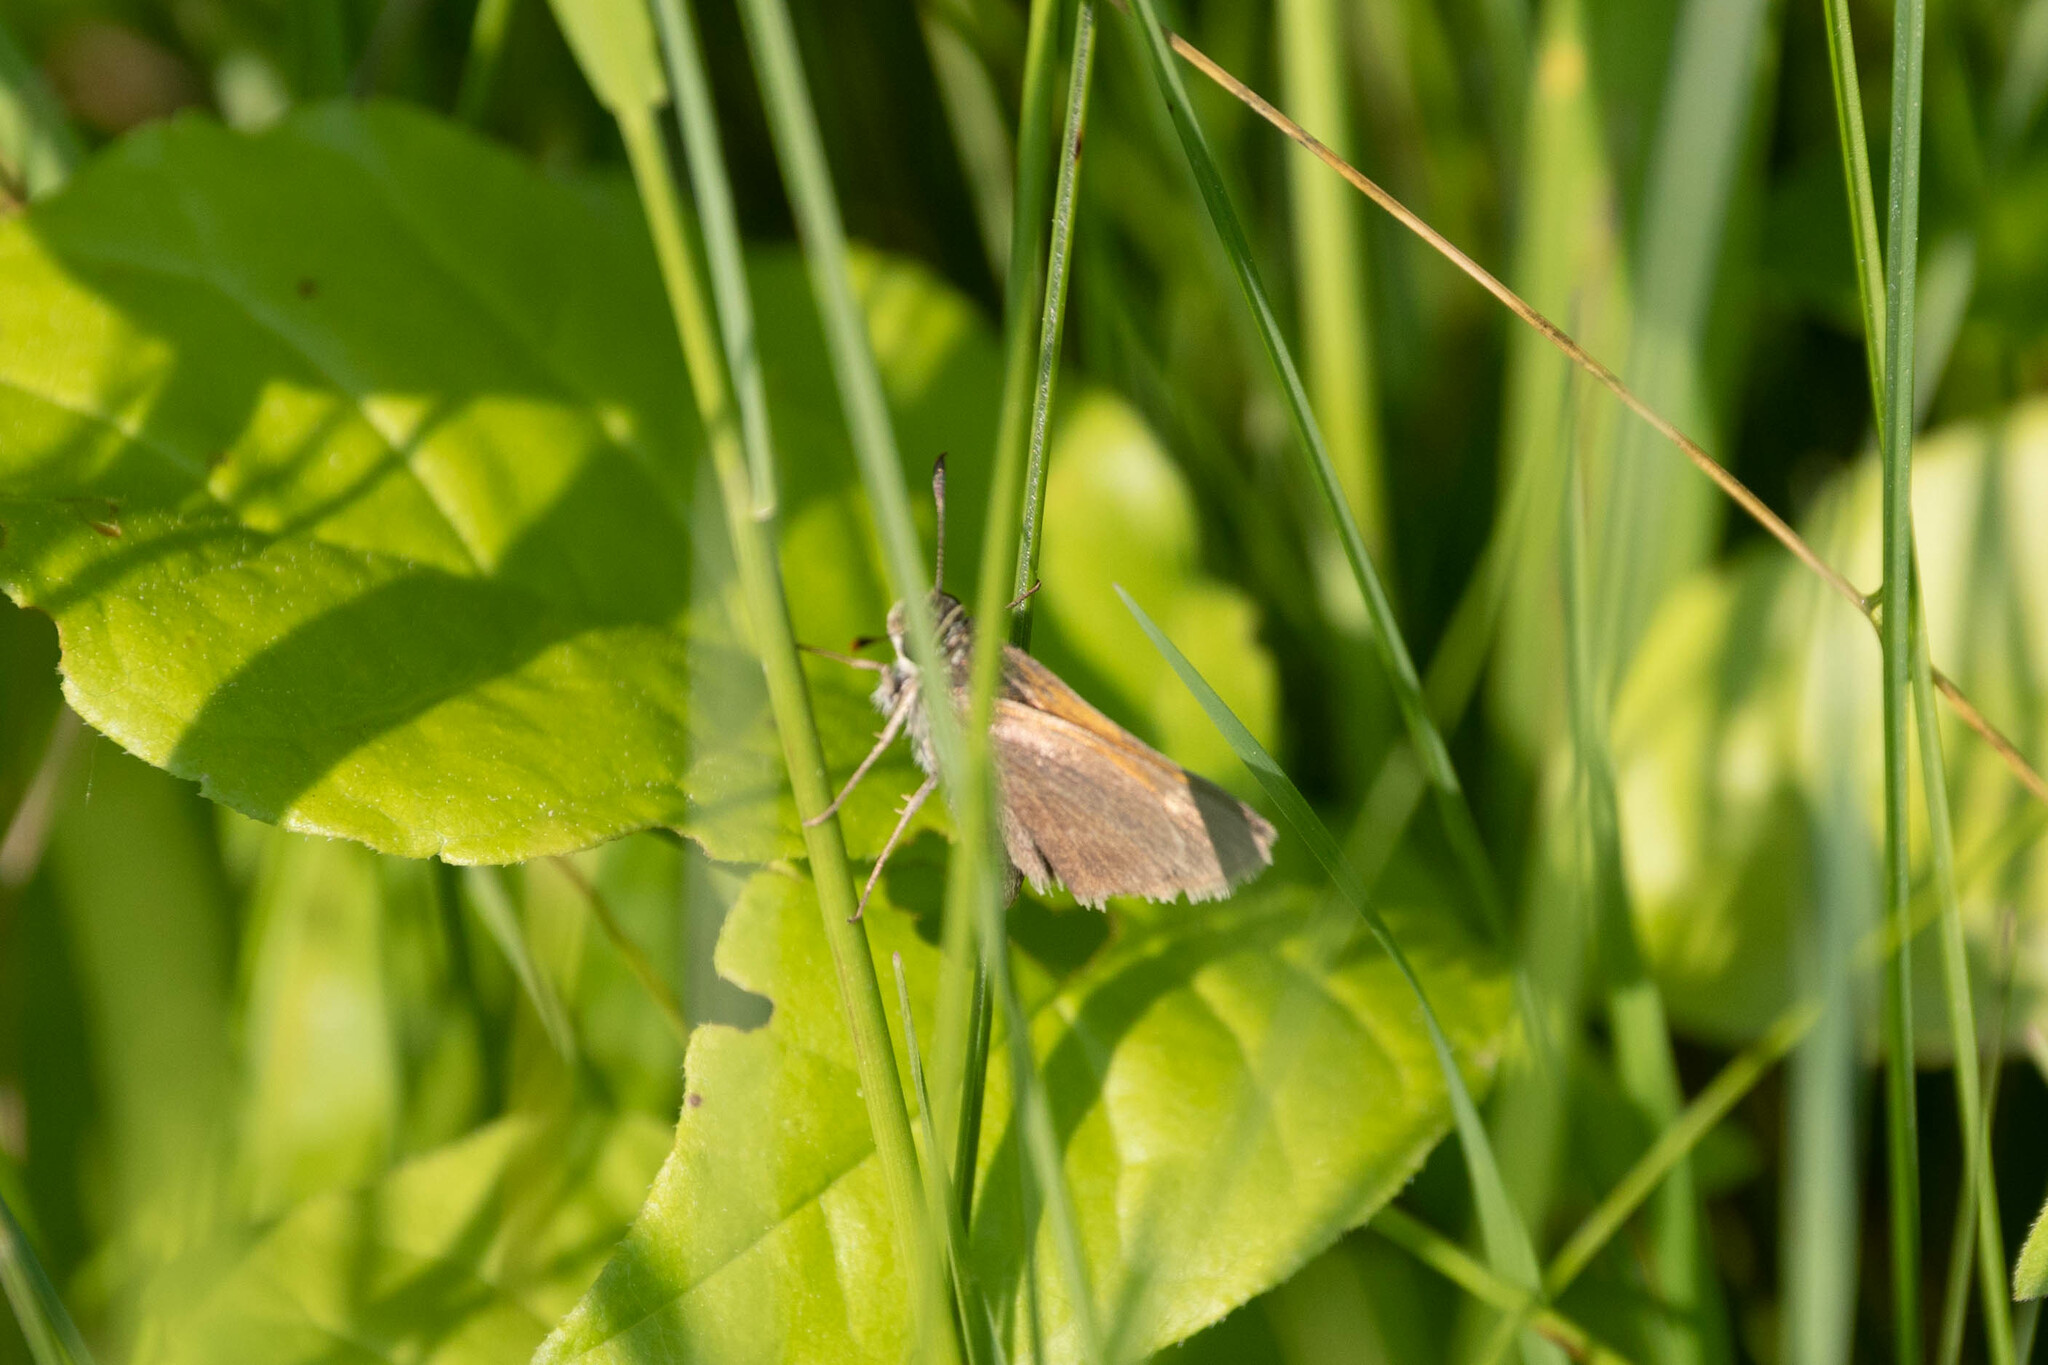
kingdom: Animalia
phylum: Arthropoda
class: Insecta
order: Lepidoptera
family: Hesperiidae
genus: Polites
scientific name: Polites themistocles
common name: Tawny-edged skipper
